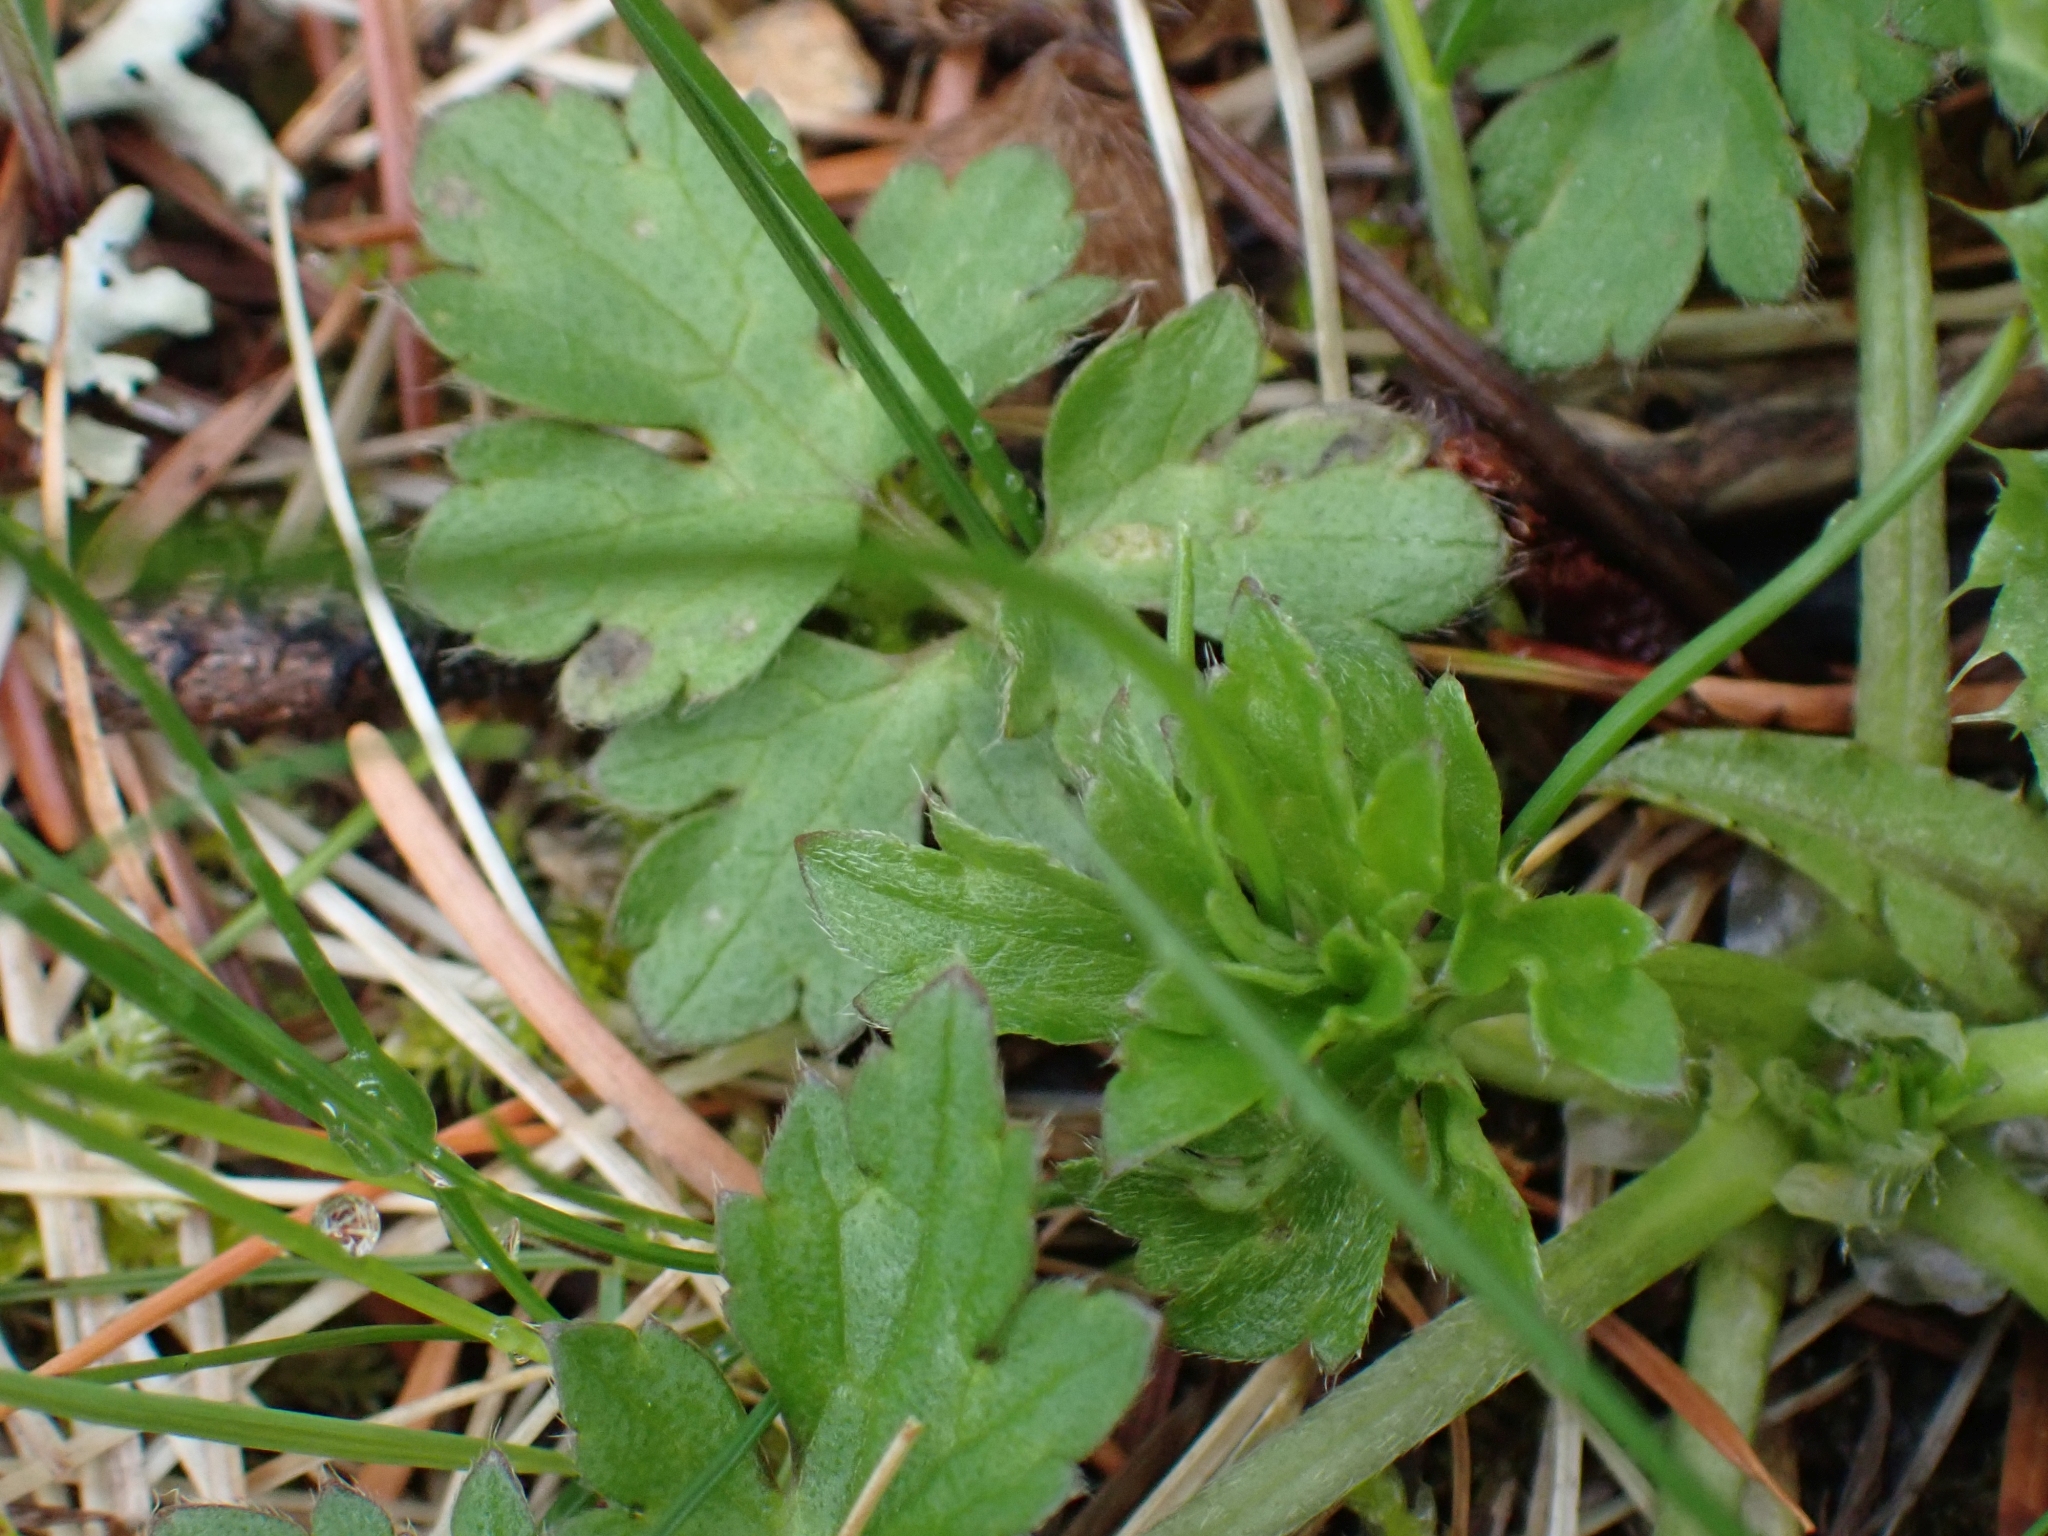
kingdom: Plantae
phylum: Tracheophyta
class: Magnoliopsida
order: Ranunculales
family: Ranunculaceae
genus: Ranunculus
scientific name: Ranunculus repens
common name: Creeping buttercup
